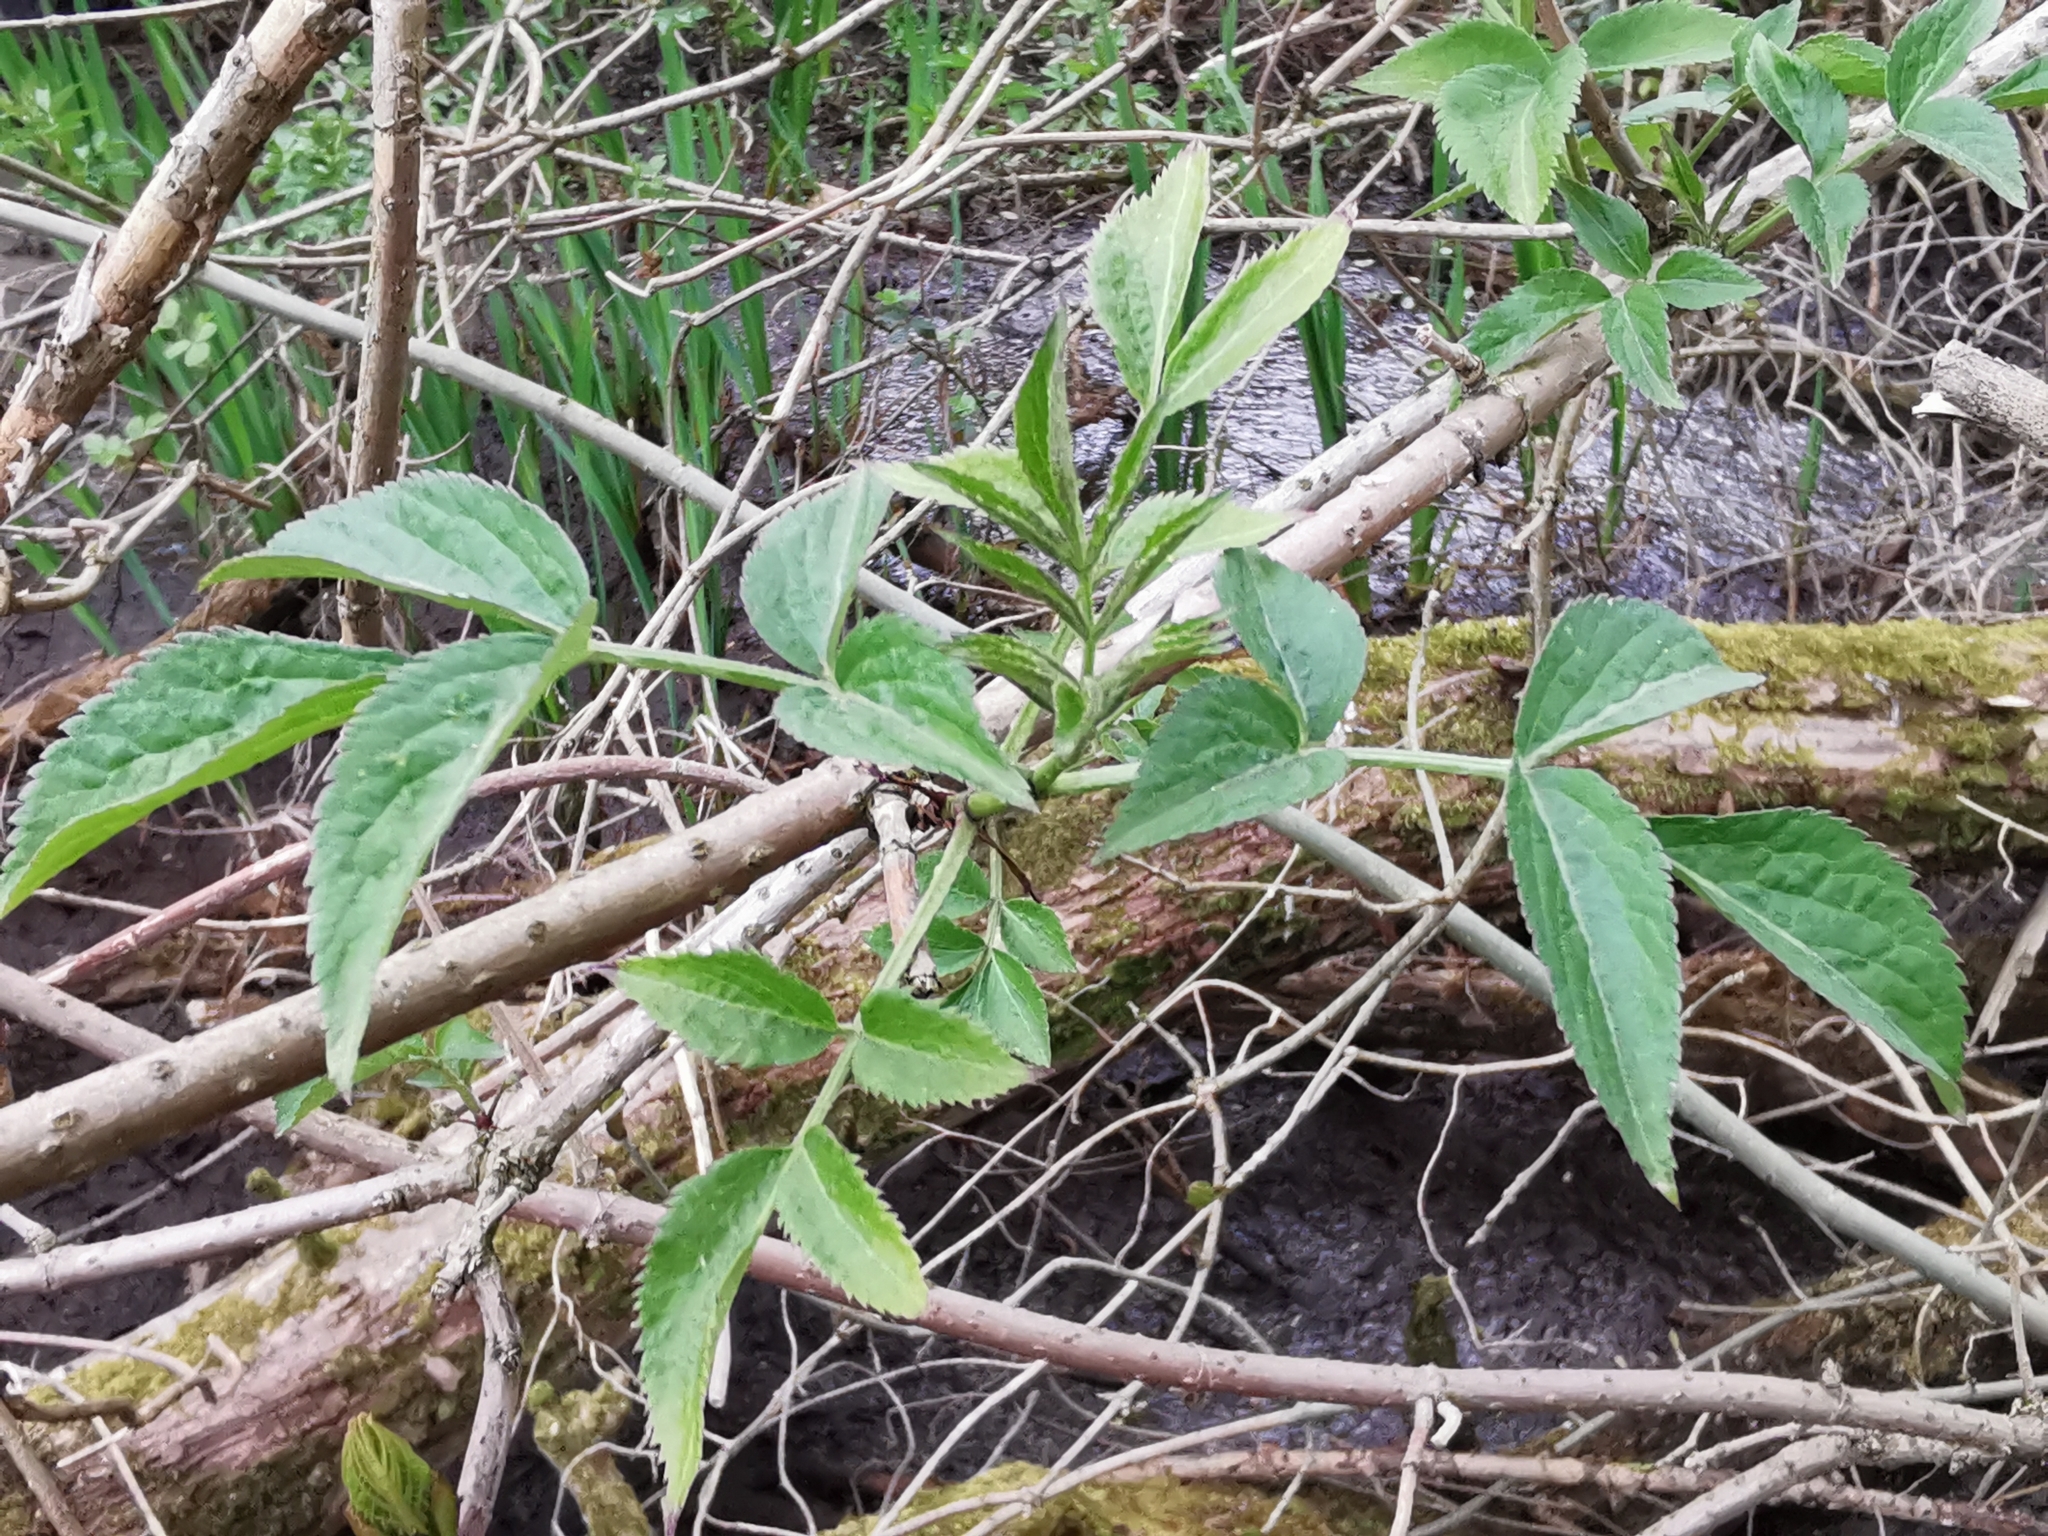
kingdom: Plantae
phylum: Tracheophyta
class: Magnoliopsida
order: Dipsacales
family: Viburnaceae
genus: Sambucus
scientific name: Sambucus nigra
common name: Elder
